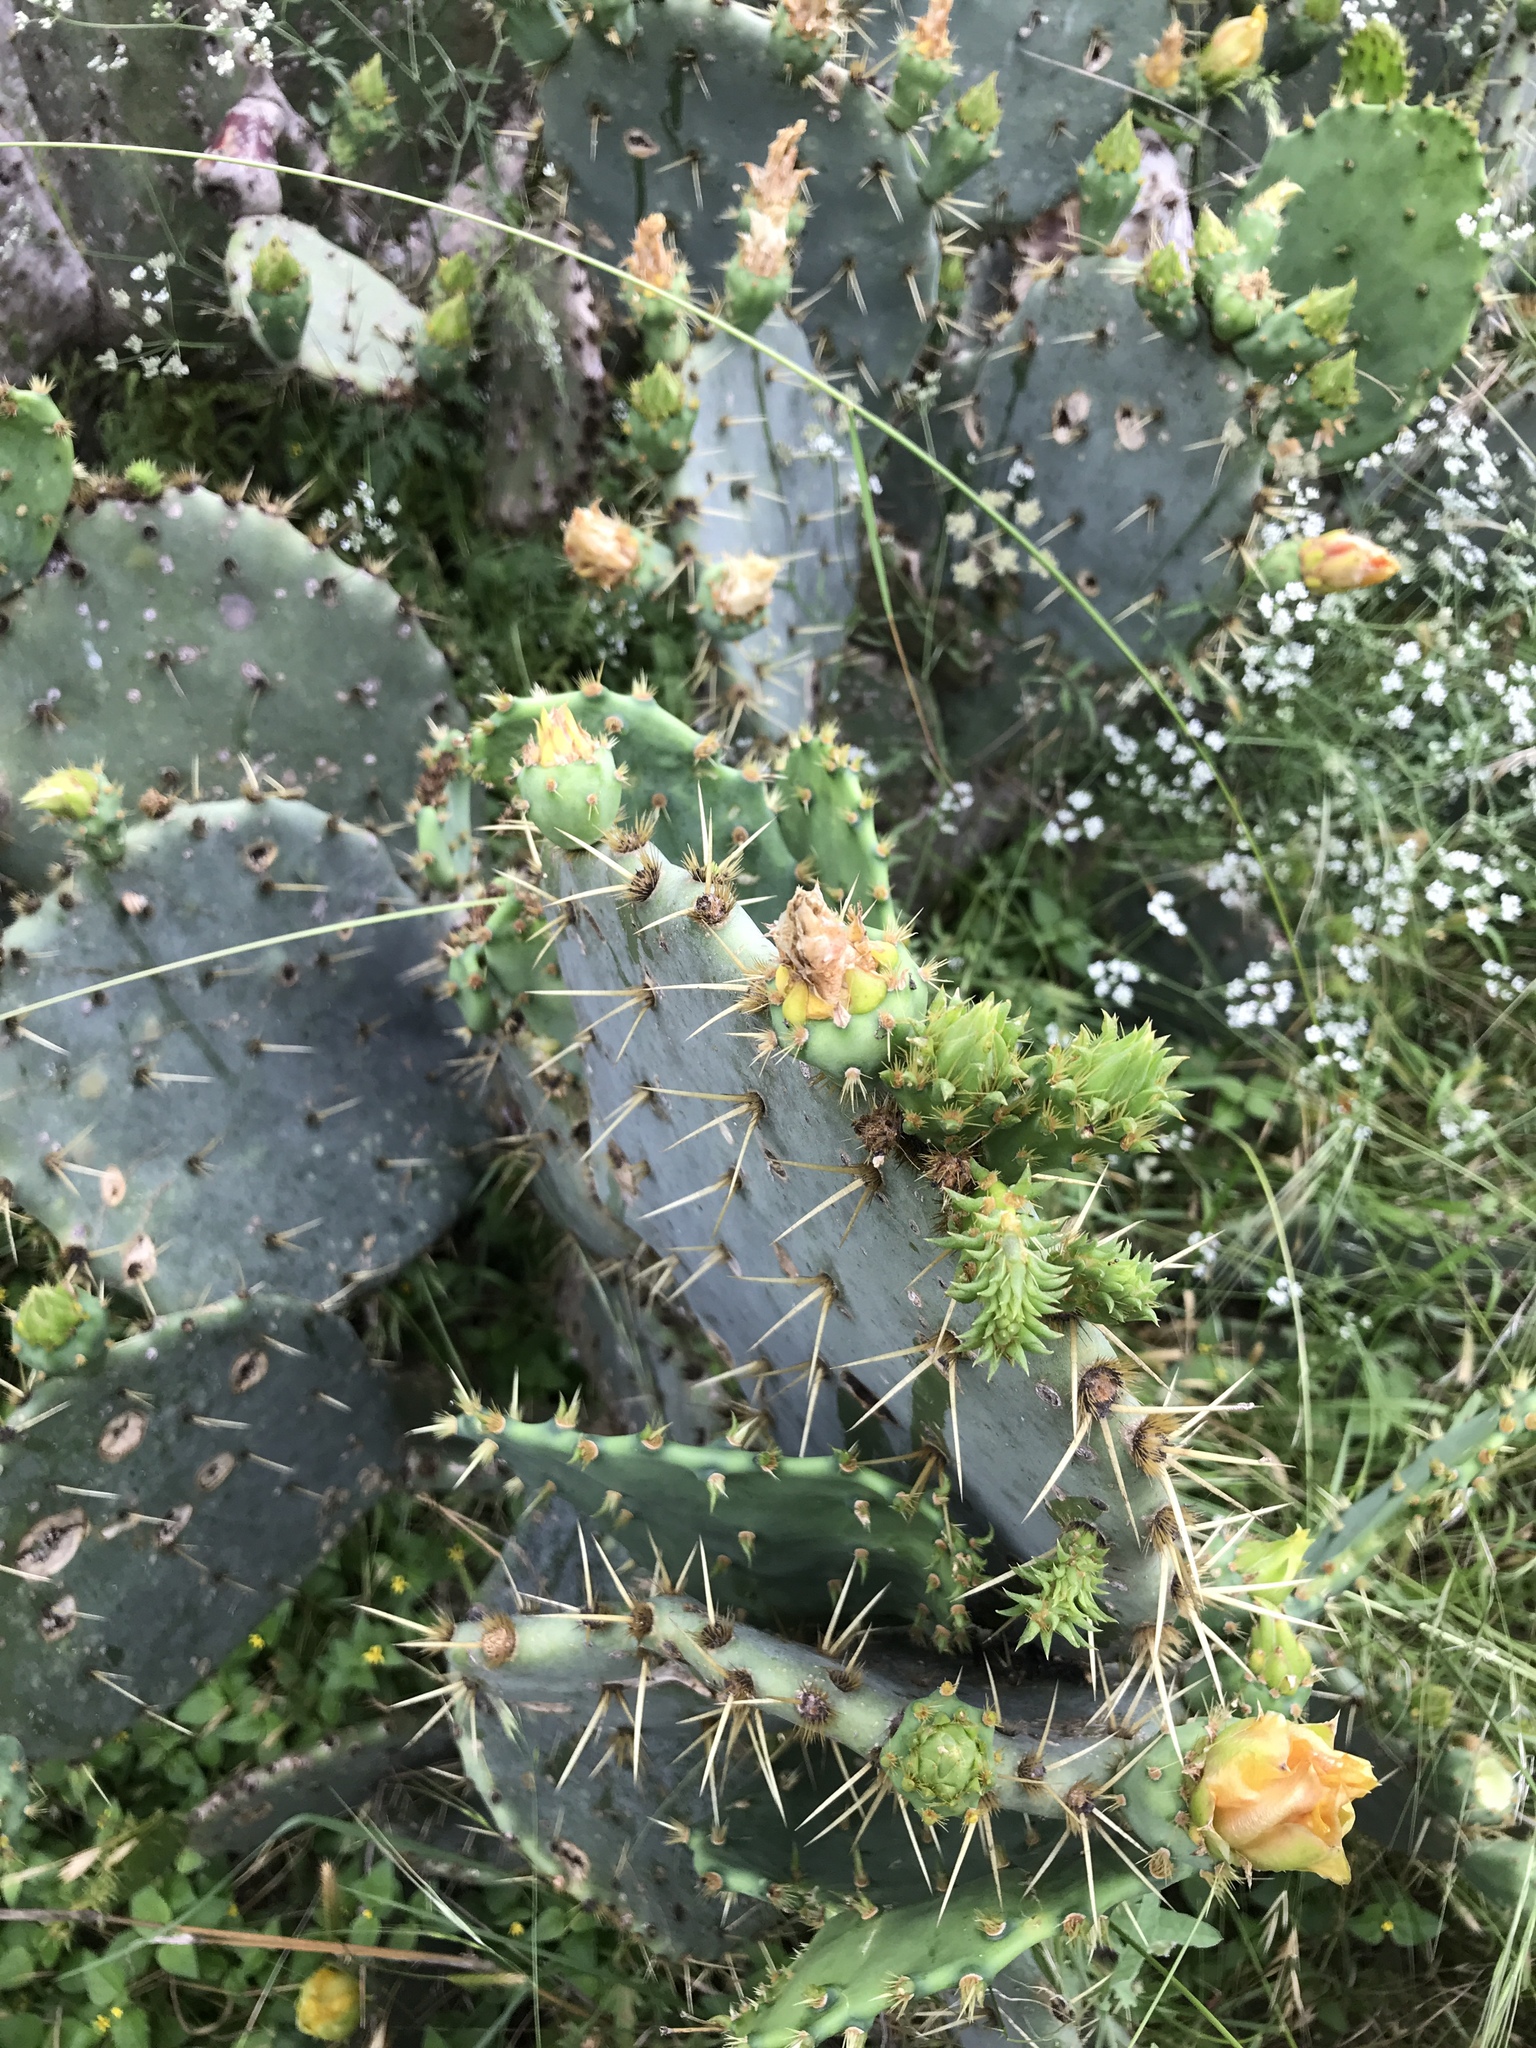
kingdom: Plantae
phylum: Tracheophyta
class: Magnoliopsida
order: Caryophyllales
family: Cactaceae
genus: Opuntia
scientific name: Opuntia engelmannii
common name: Cactus-apple
